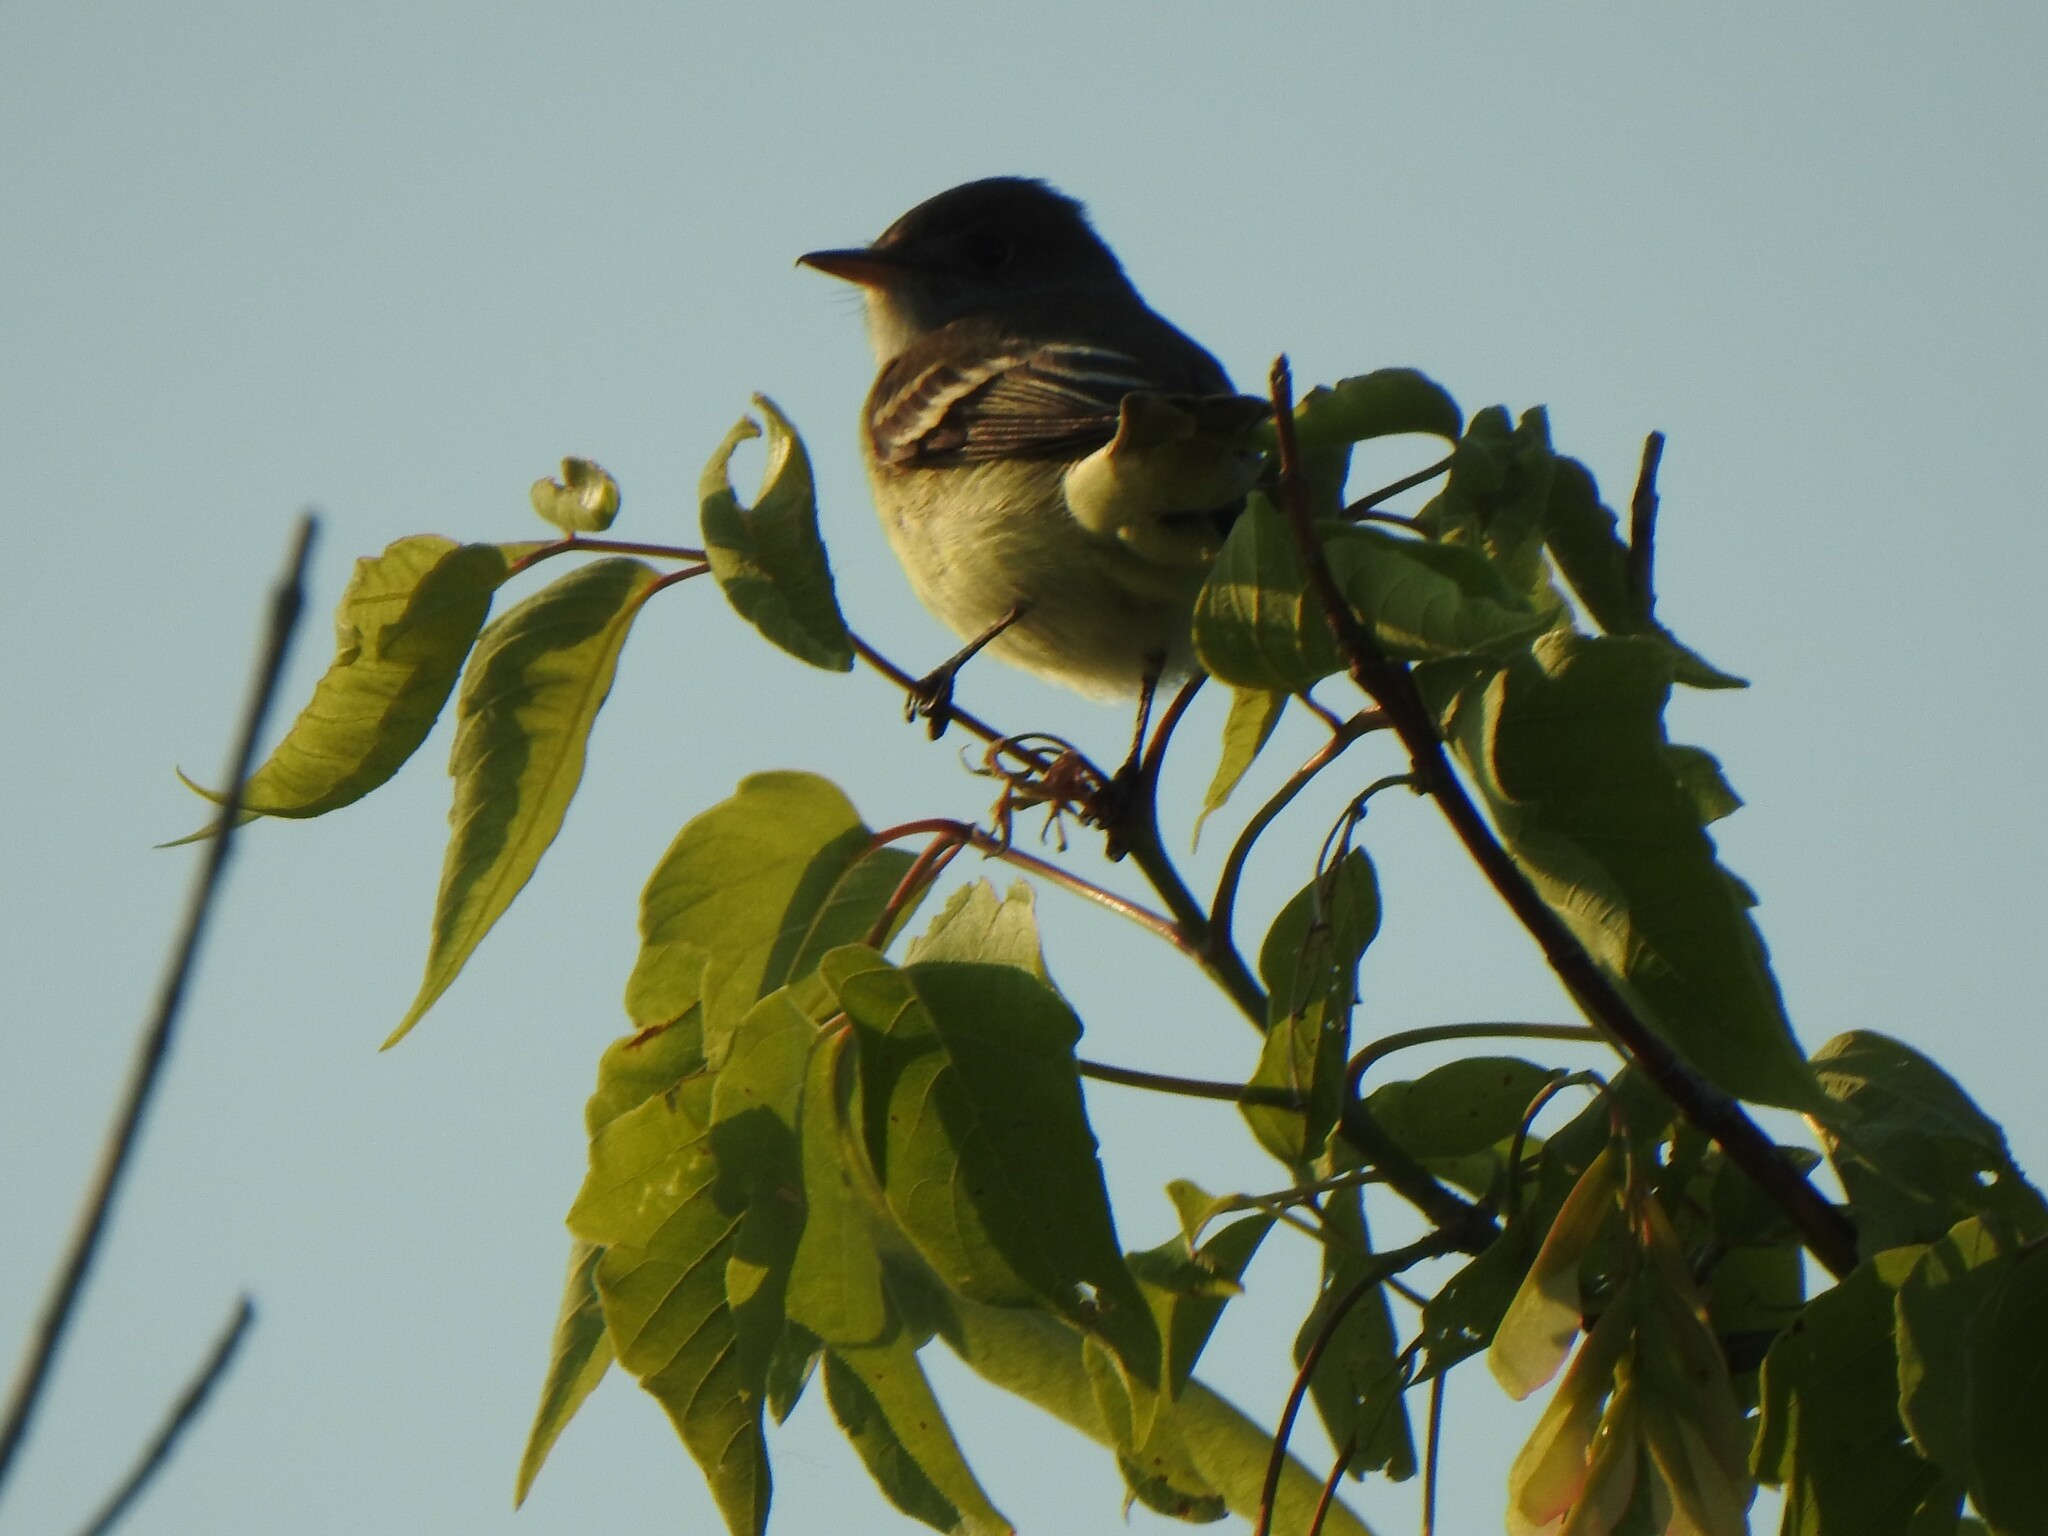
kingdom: Animalia
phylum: Chordata
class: Aves
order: Passeriformes
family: Tyrannidae
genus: Empidonax
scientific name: Empidonax traillii
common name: Willow flycatcher
